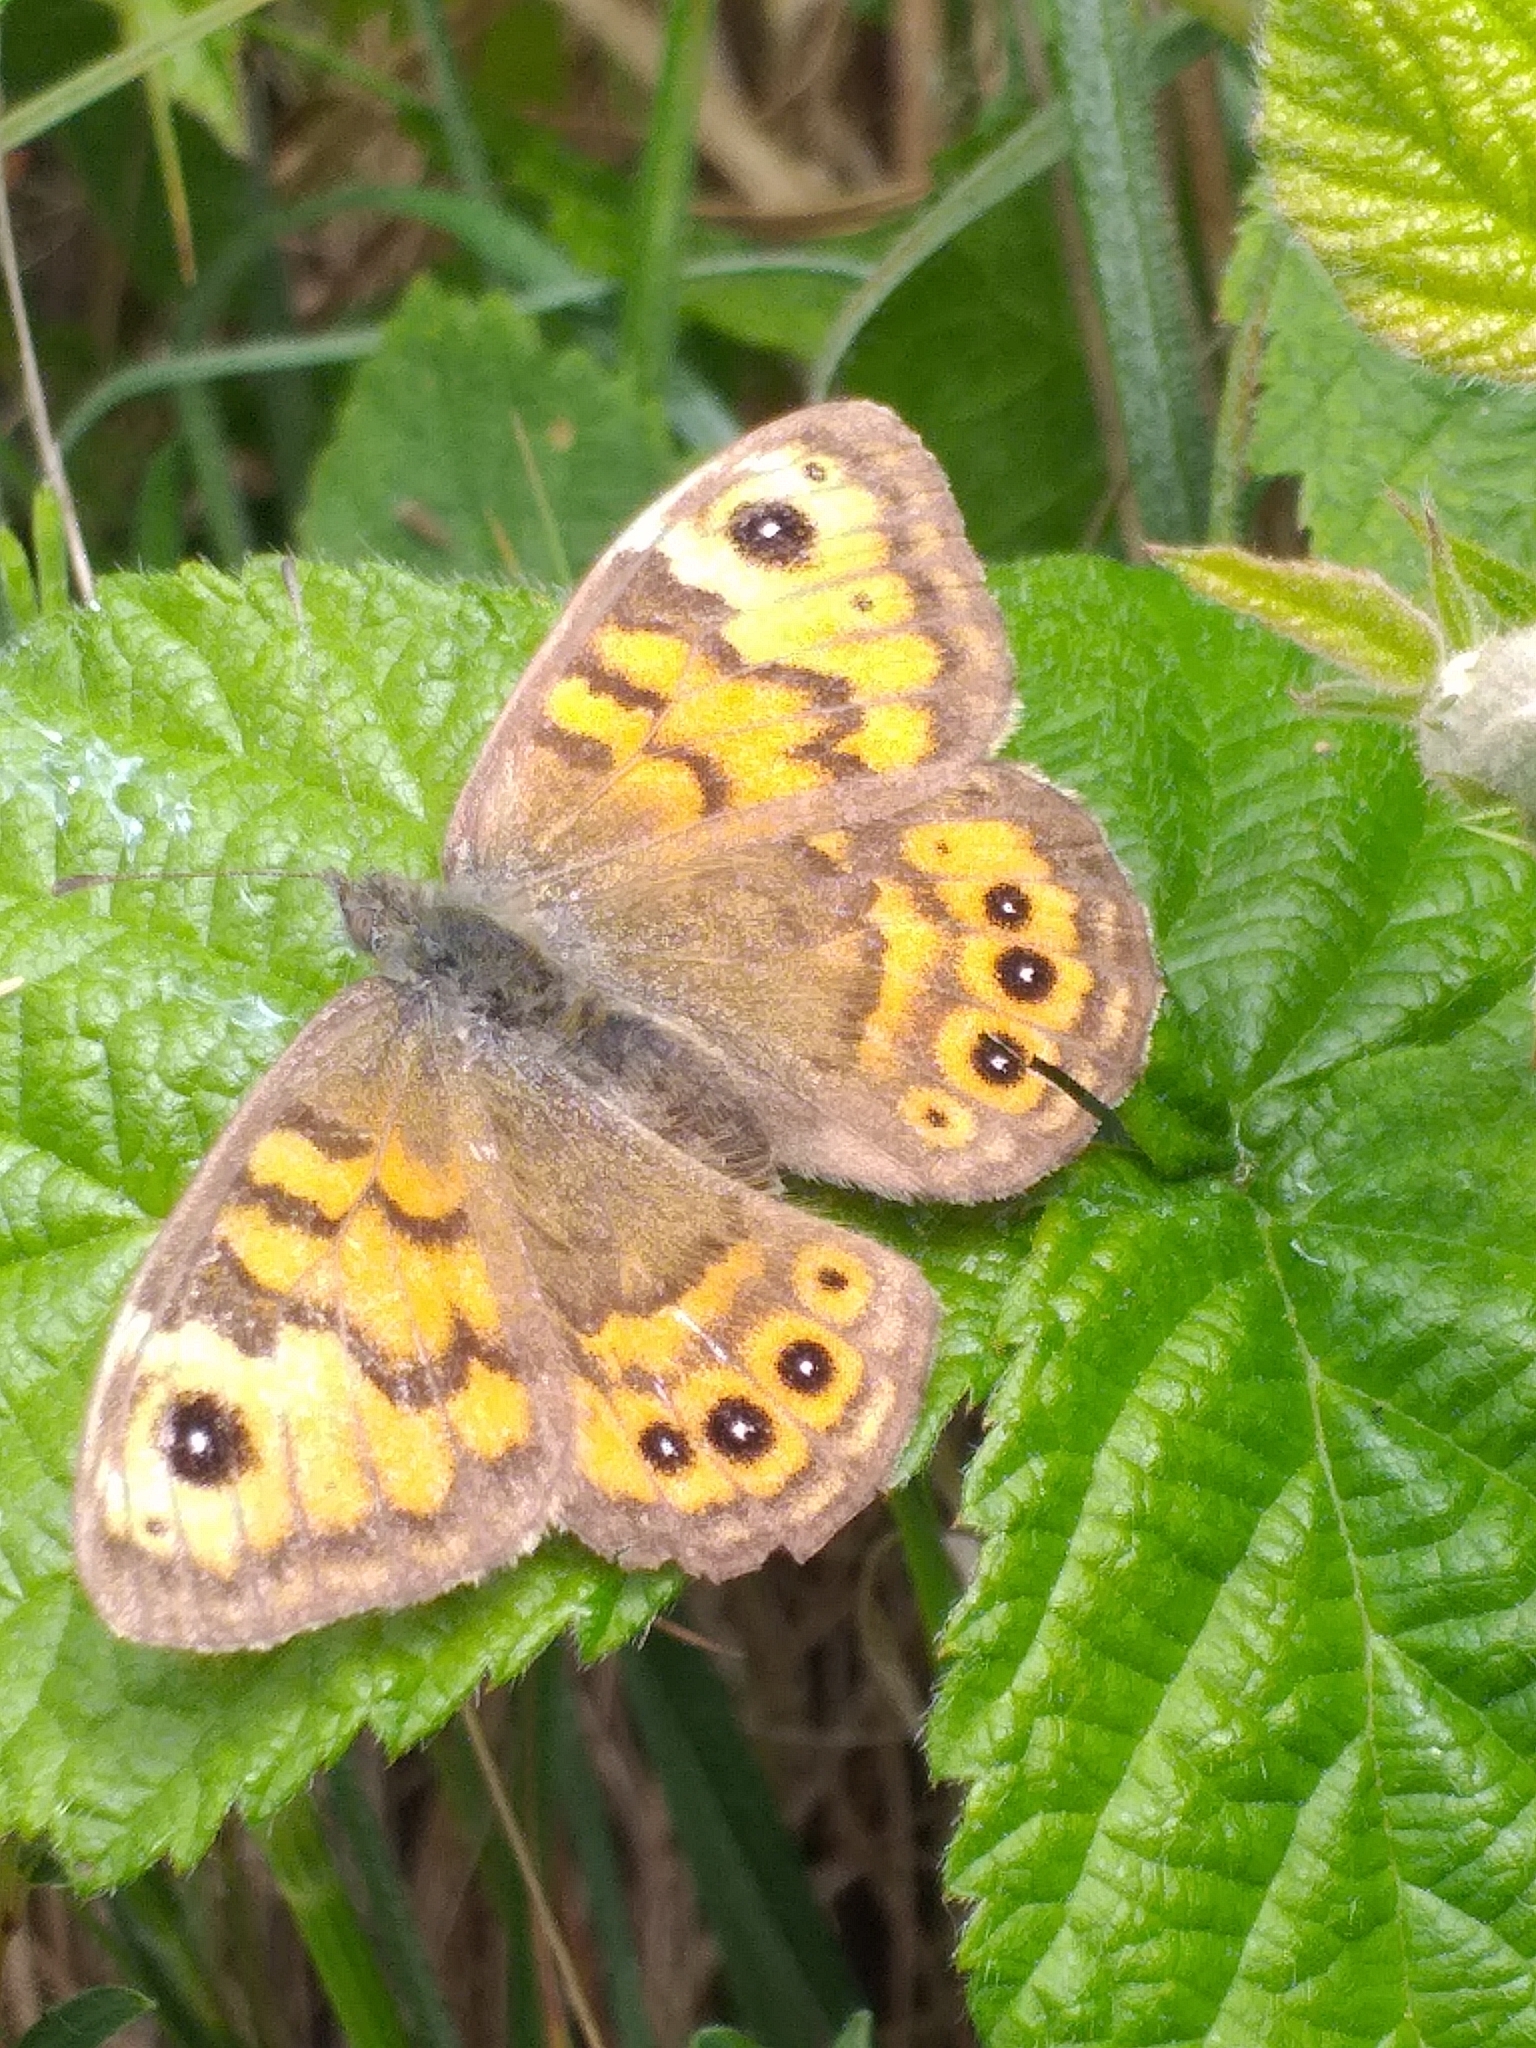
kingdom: Animalia
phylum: Arthropoda
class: Insecta
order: Lepidoptera
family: Nymphalidae
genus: Pararge
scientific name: Pararge Lasiommata megera
